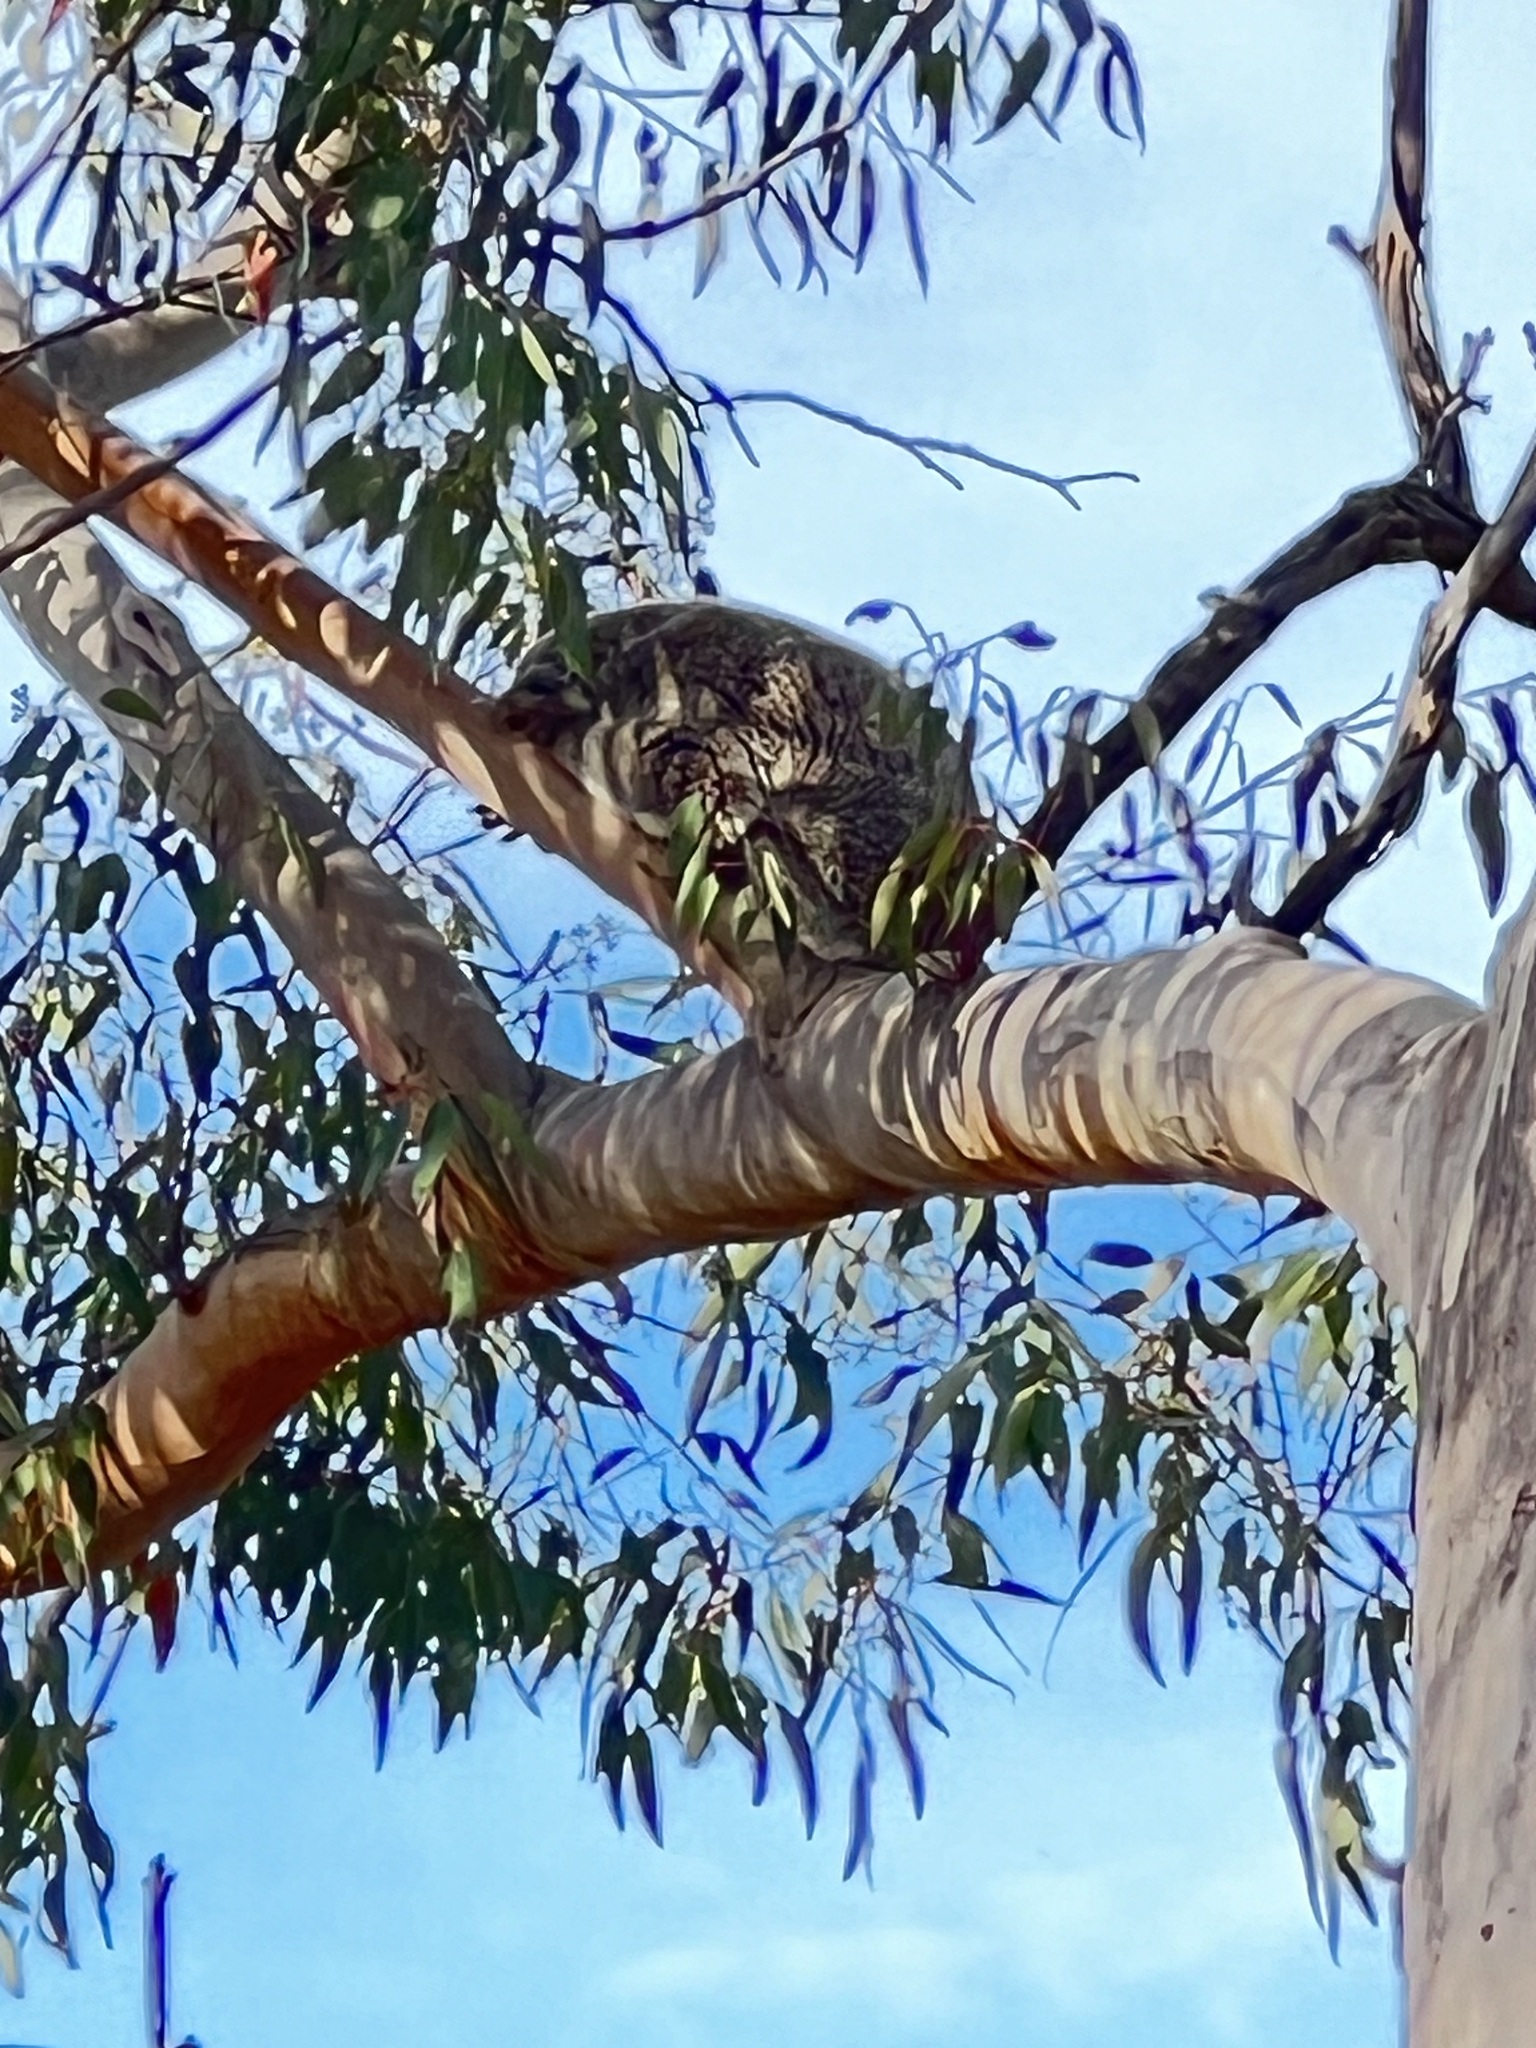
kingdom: Animalia
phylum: Chordata
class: Mammalia
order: Diprotodontia
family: Phascolarctidae
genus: Phascolarctos
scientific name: Phascolarctos cinereus
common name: Koala
